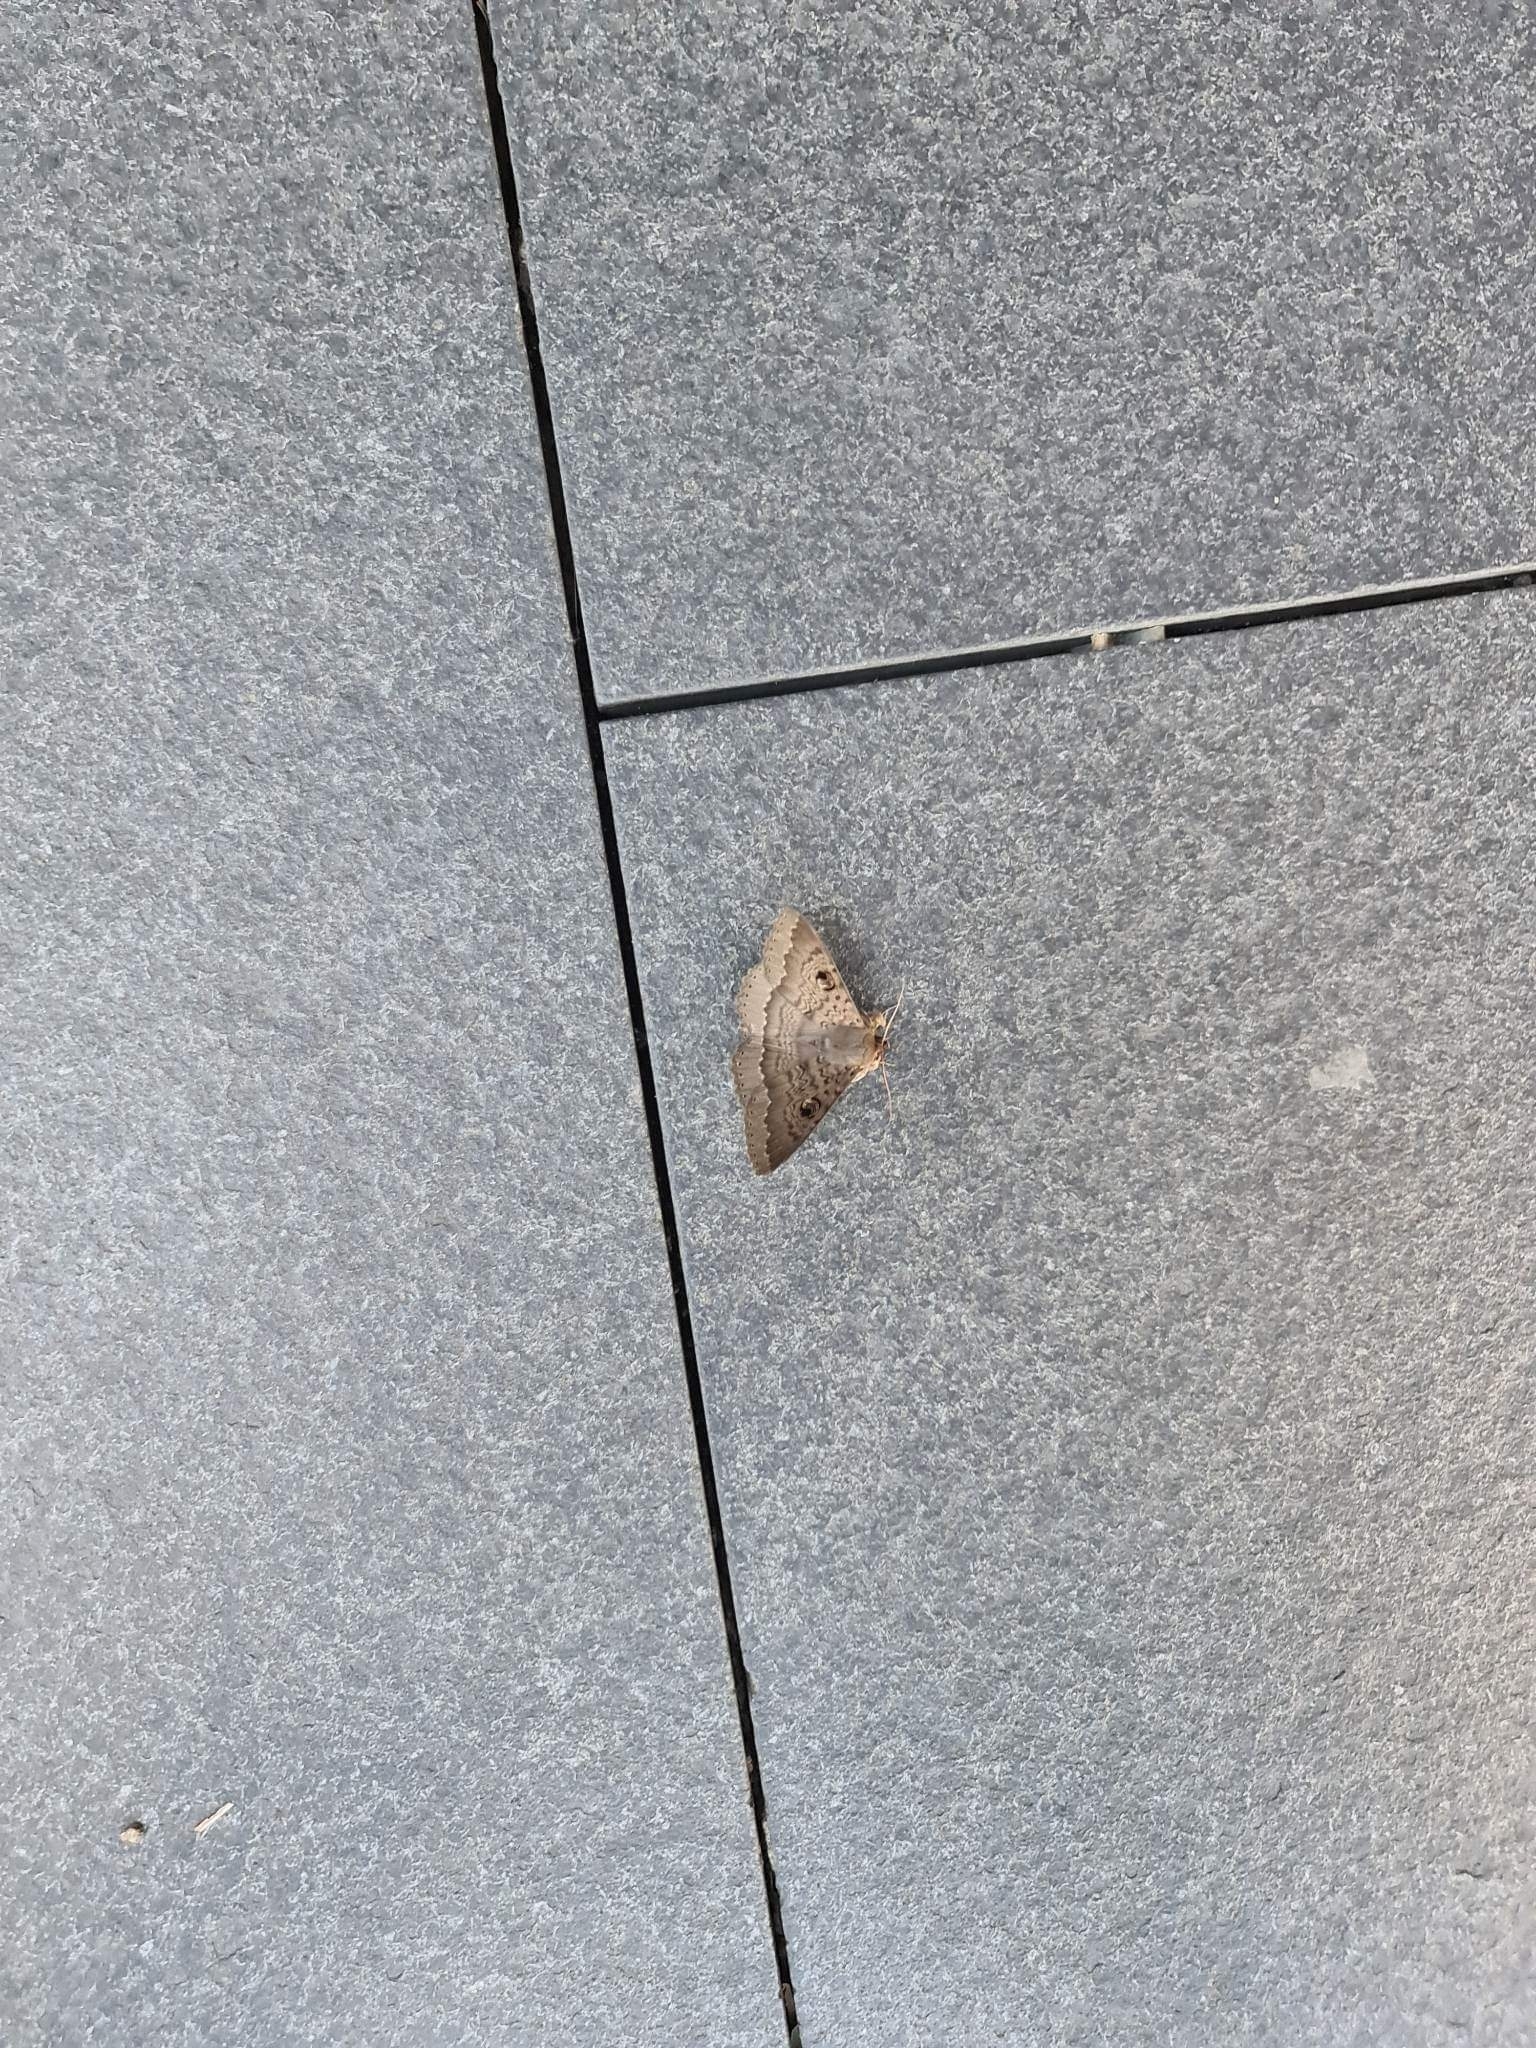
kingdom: Animalia
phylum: Arthropoda
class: Insecta
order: Lepidoptera
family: Erebidae
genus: Dasypodia
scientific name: Dasypodia cymatodes
